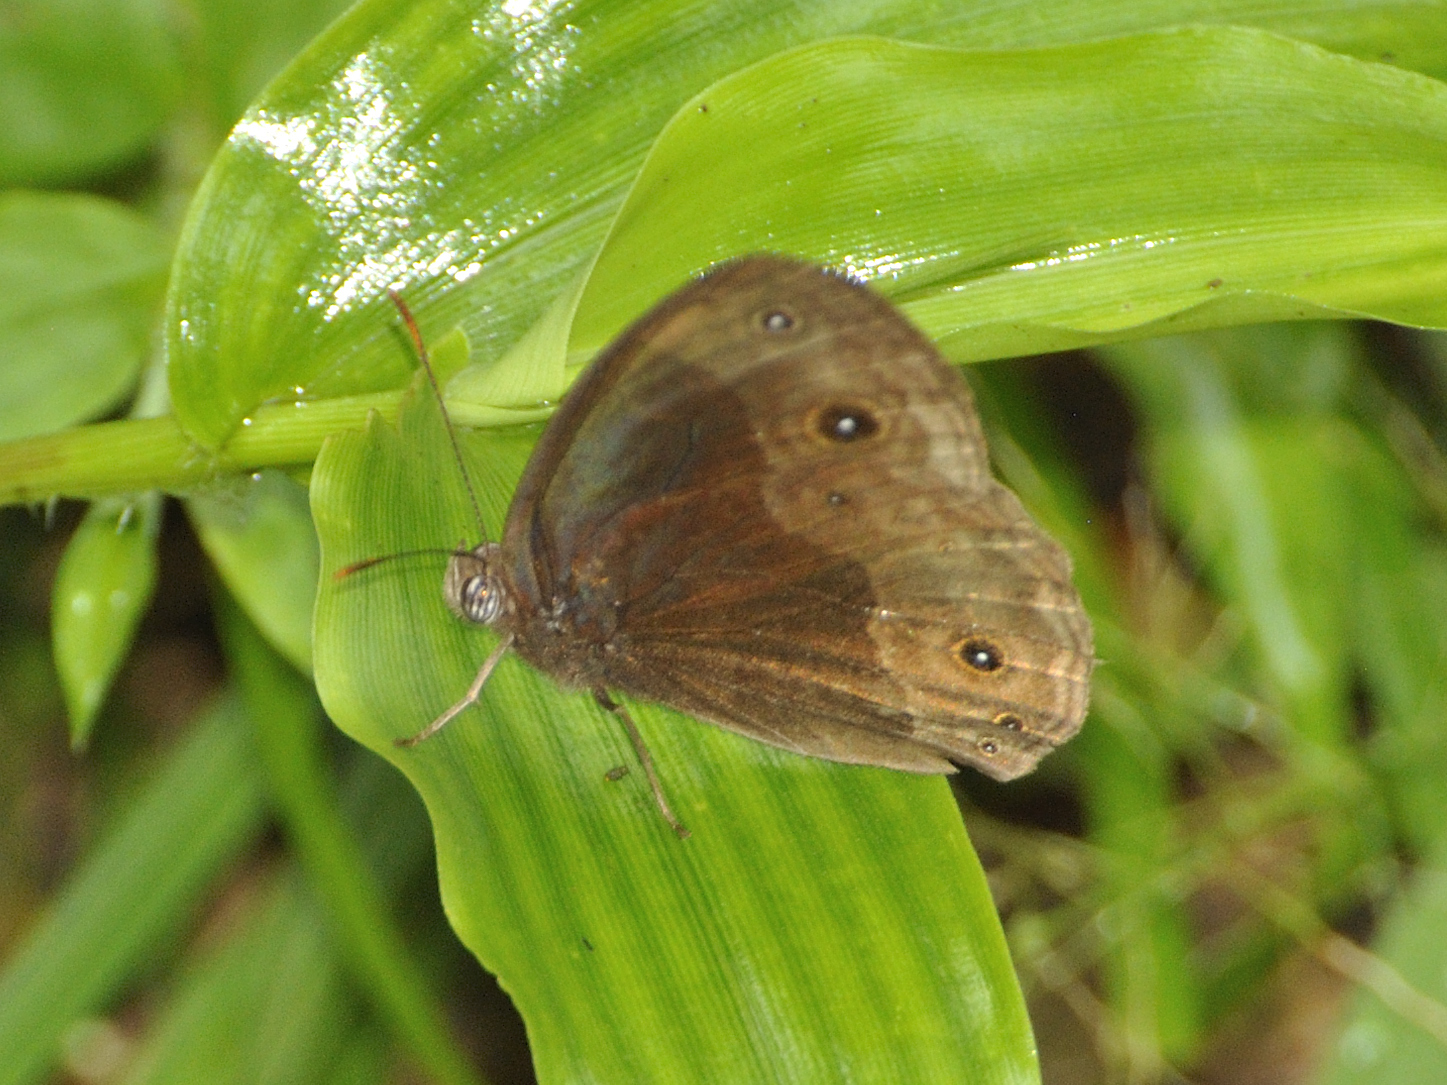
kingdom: Animalia
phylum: Arthropoda
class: Insecta
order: Lepidoptera
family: Nymphalidae
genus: Bicyclus
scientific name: Bicyclus campina
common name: Chirinda bush brown
